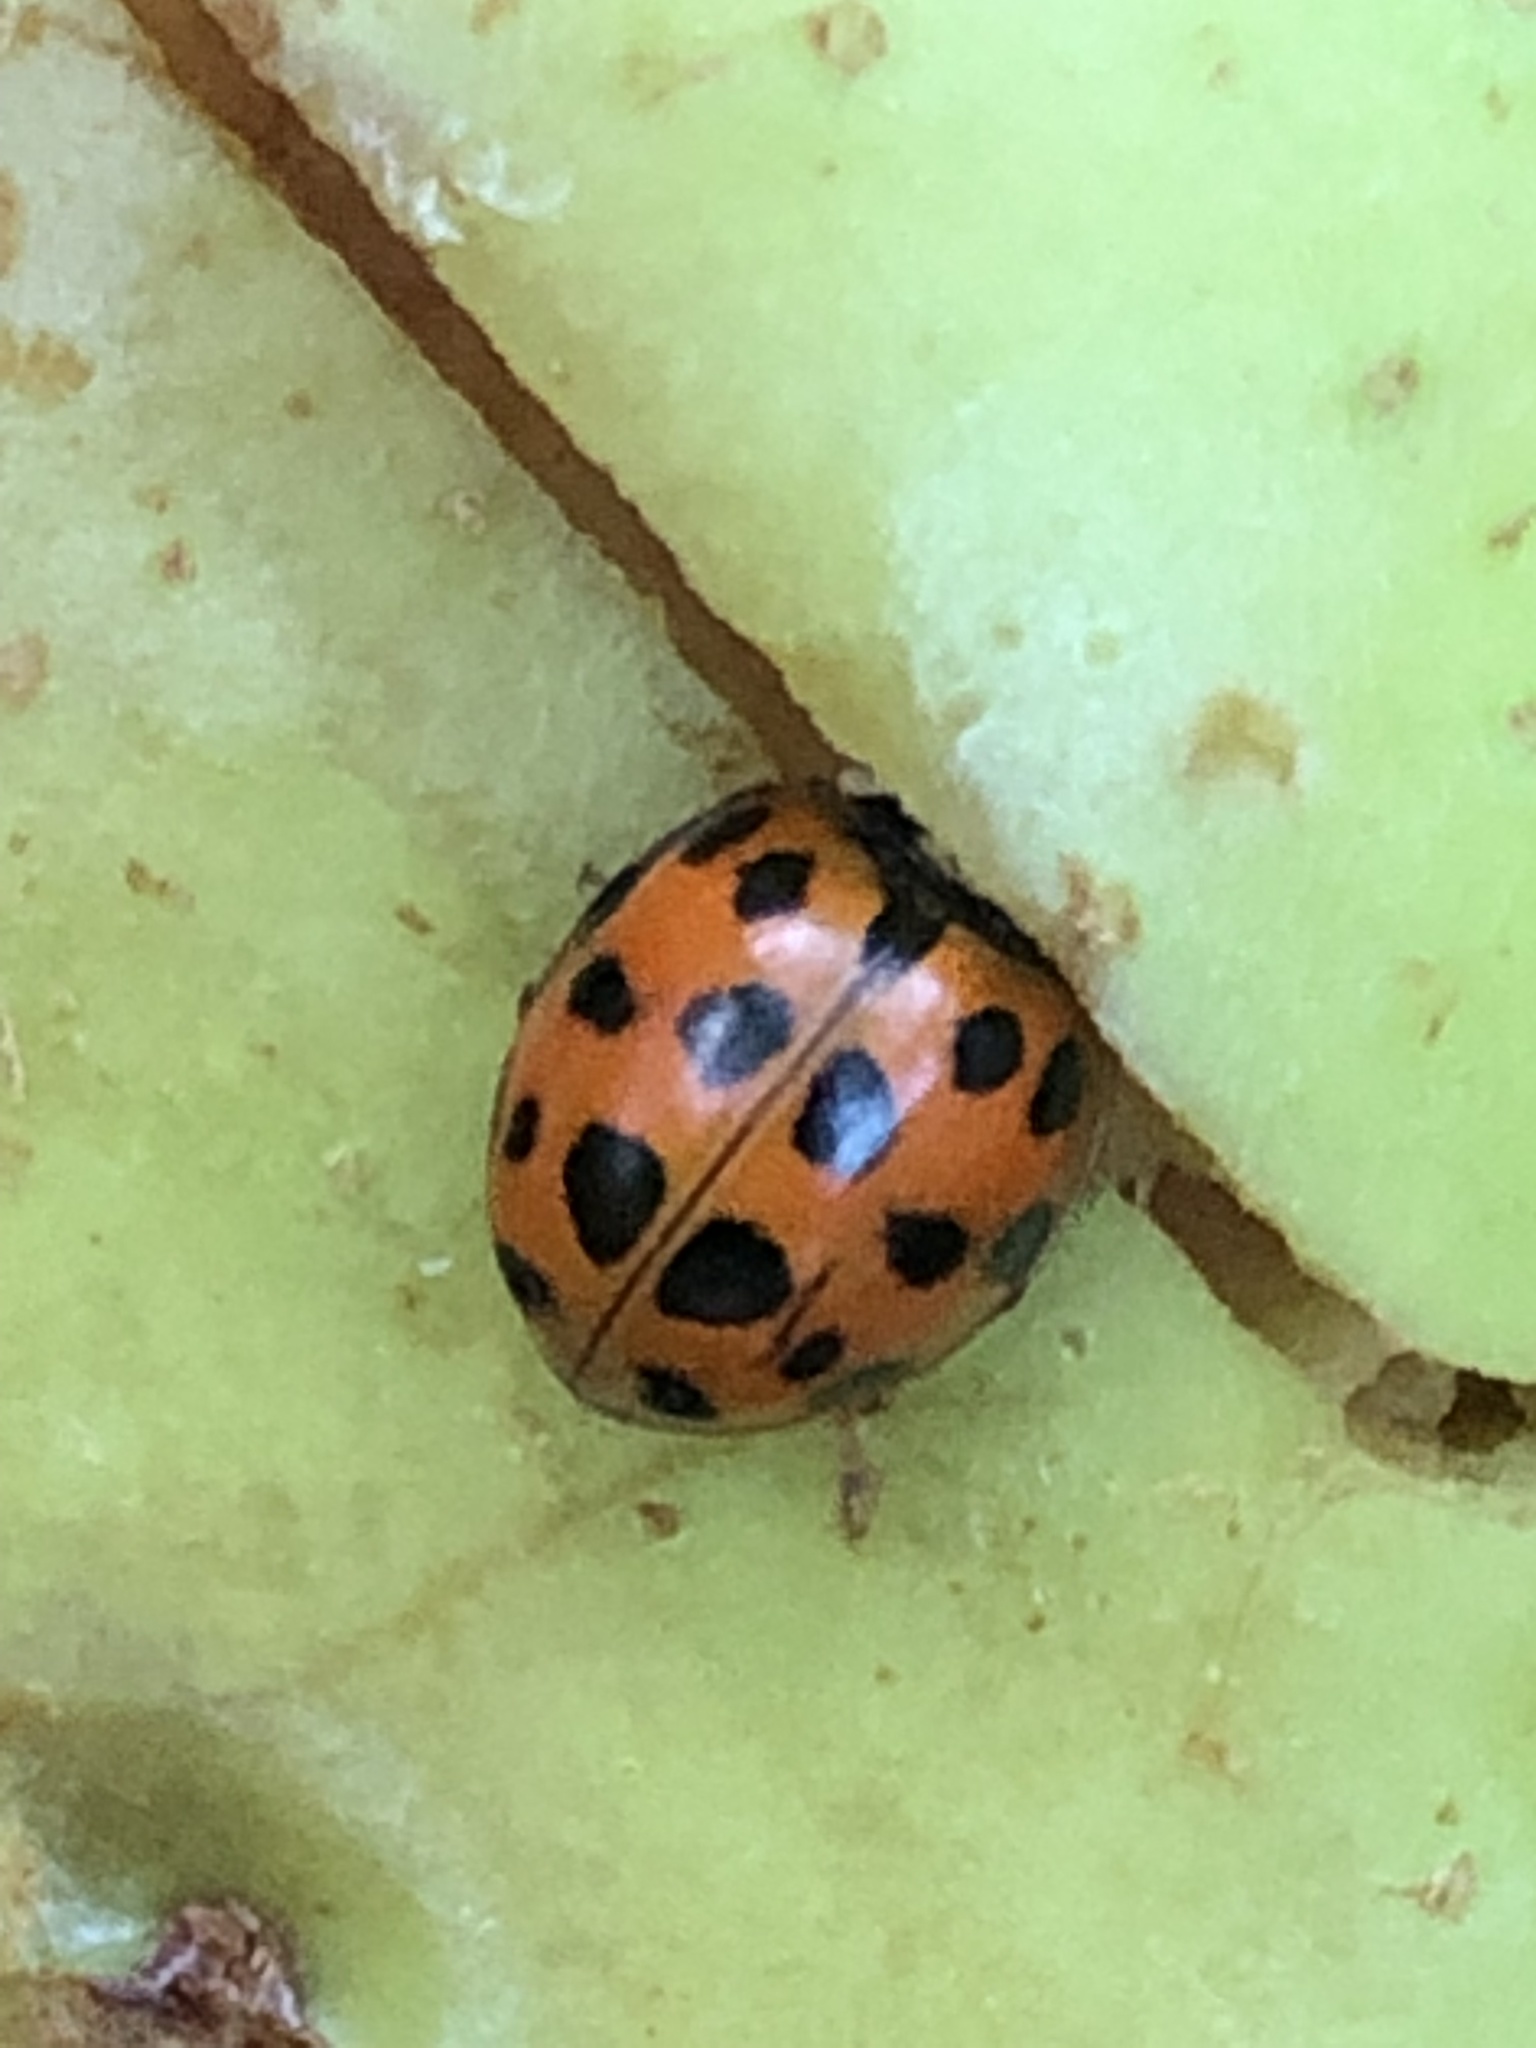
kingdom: Animalia
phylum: Arthropoda
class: Insecta
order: Coleoptera
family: Coccinellidae
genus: Harmonia
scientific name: Harmonia axyridis
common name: Harlequin ladybird
